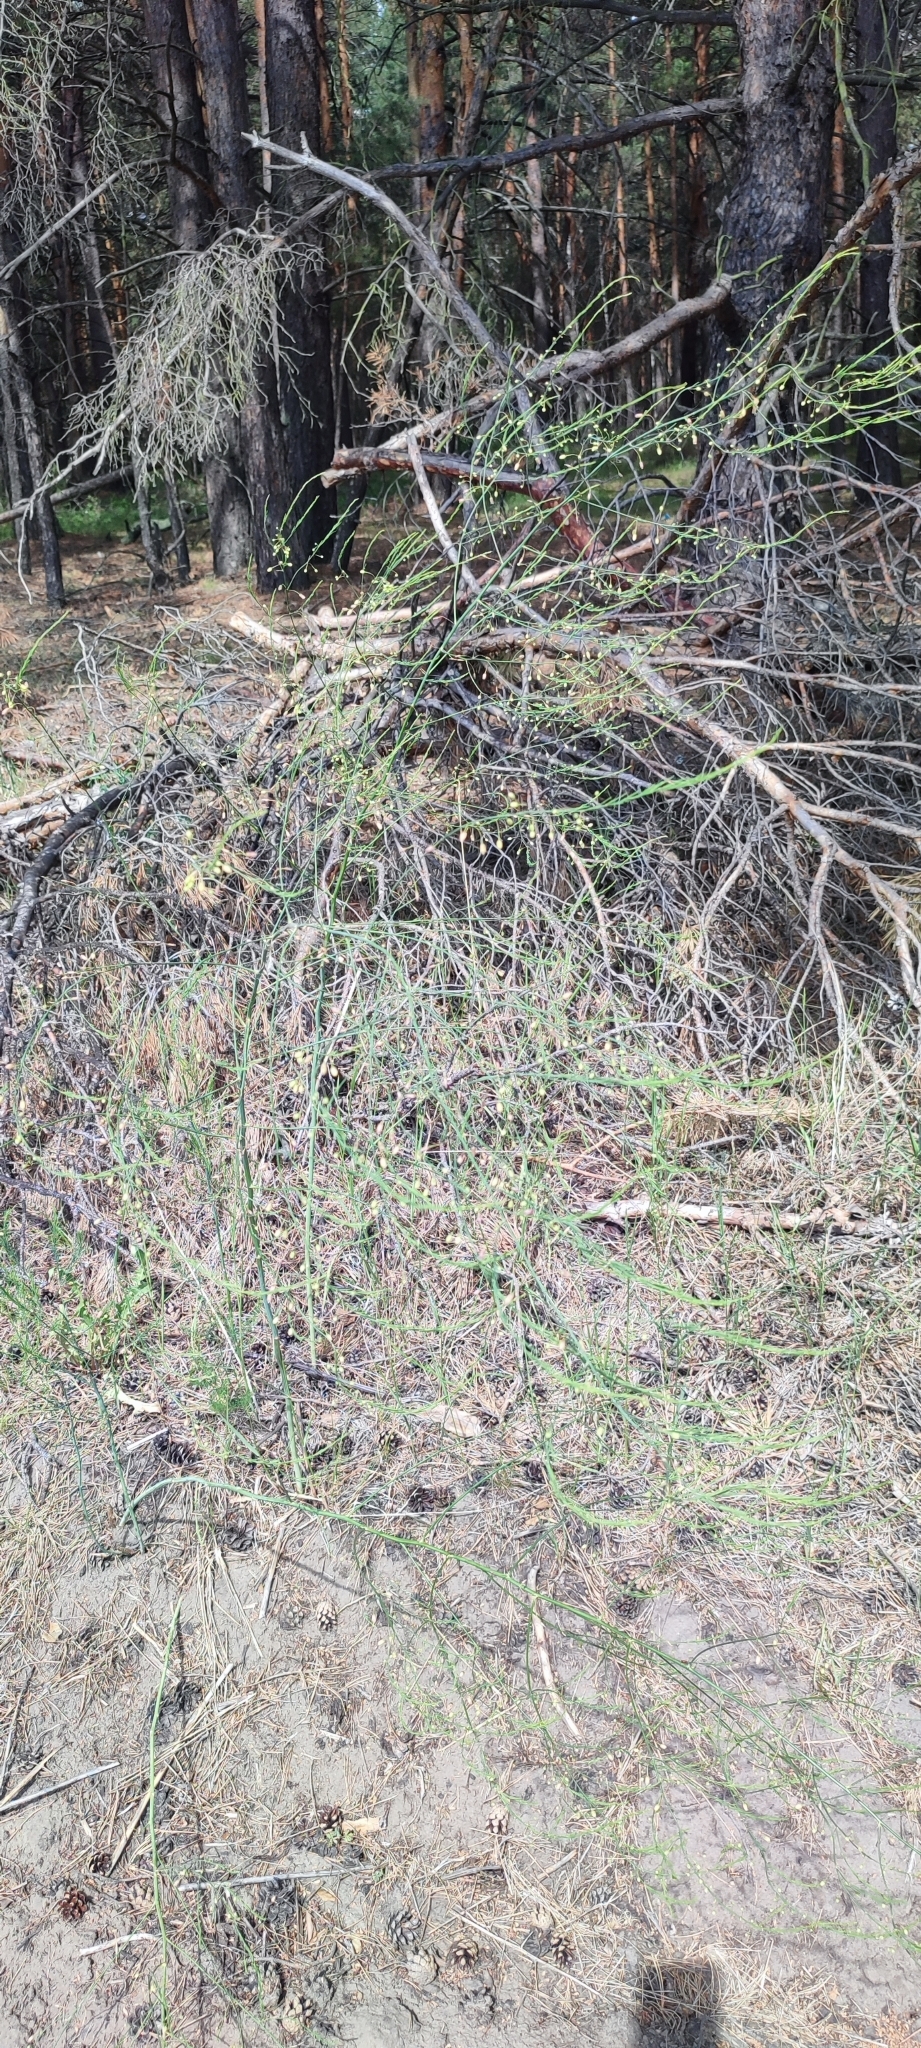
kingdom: Plantae
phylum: Tracheophyta
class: Liliopsida
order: Asparagales
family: Asparagaceae
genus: Asparagus
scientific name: Asparagus officinalis
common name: Garden asparagus
